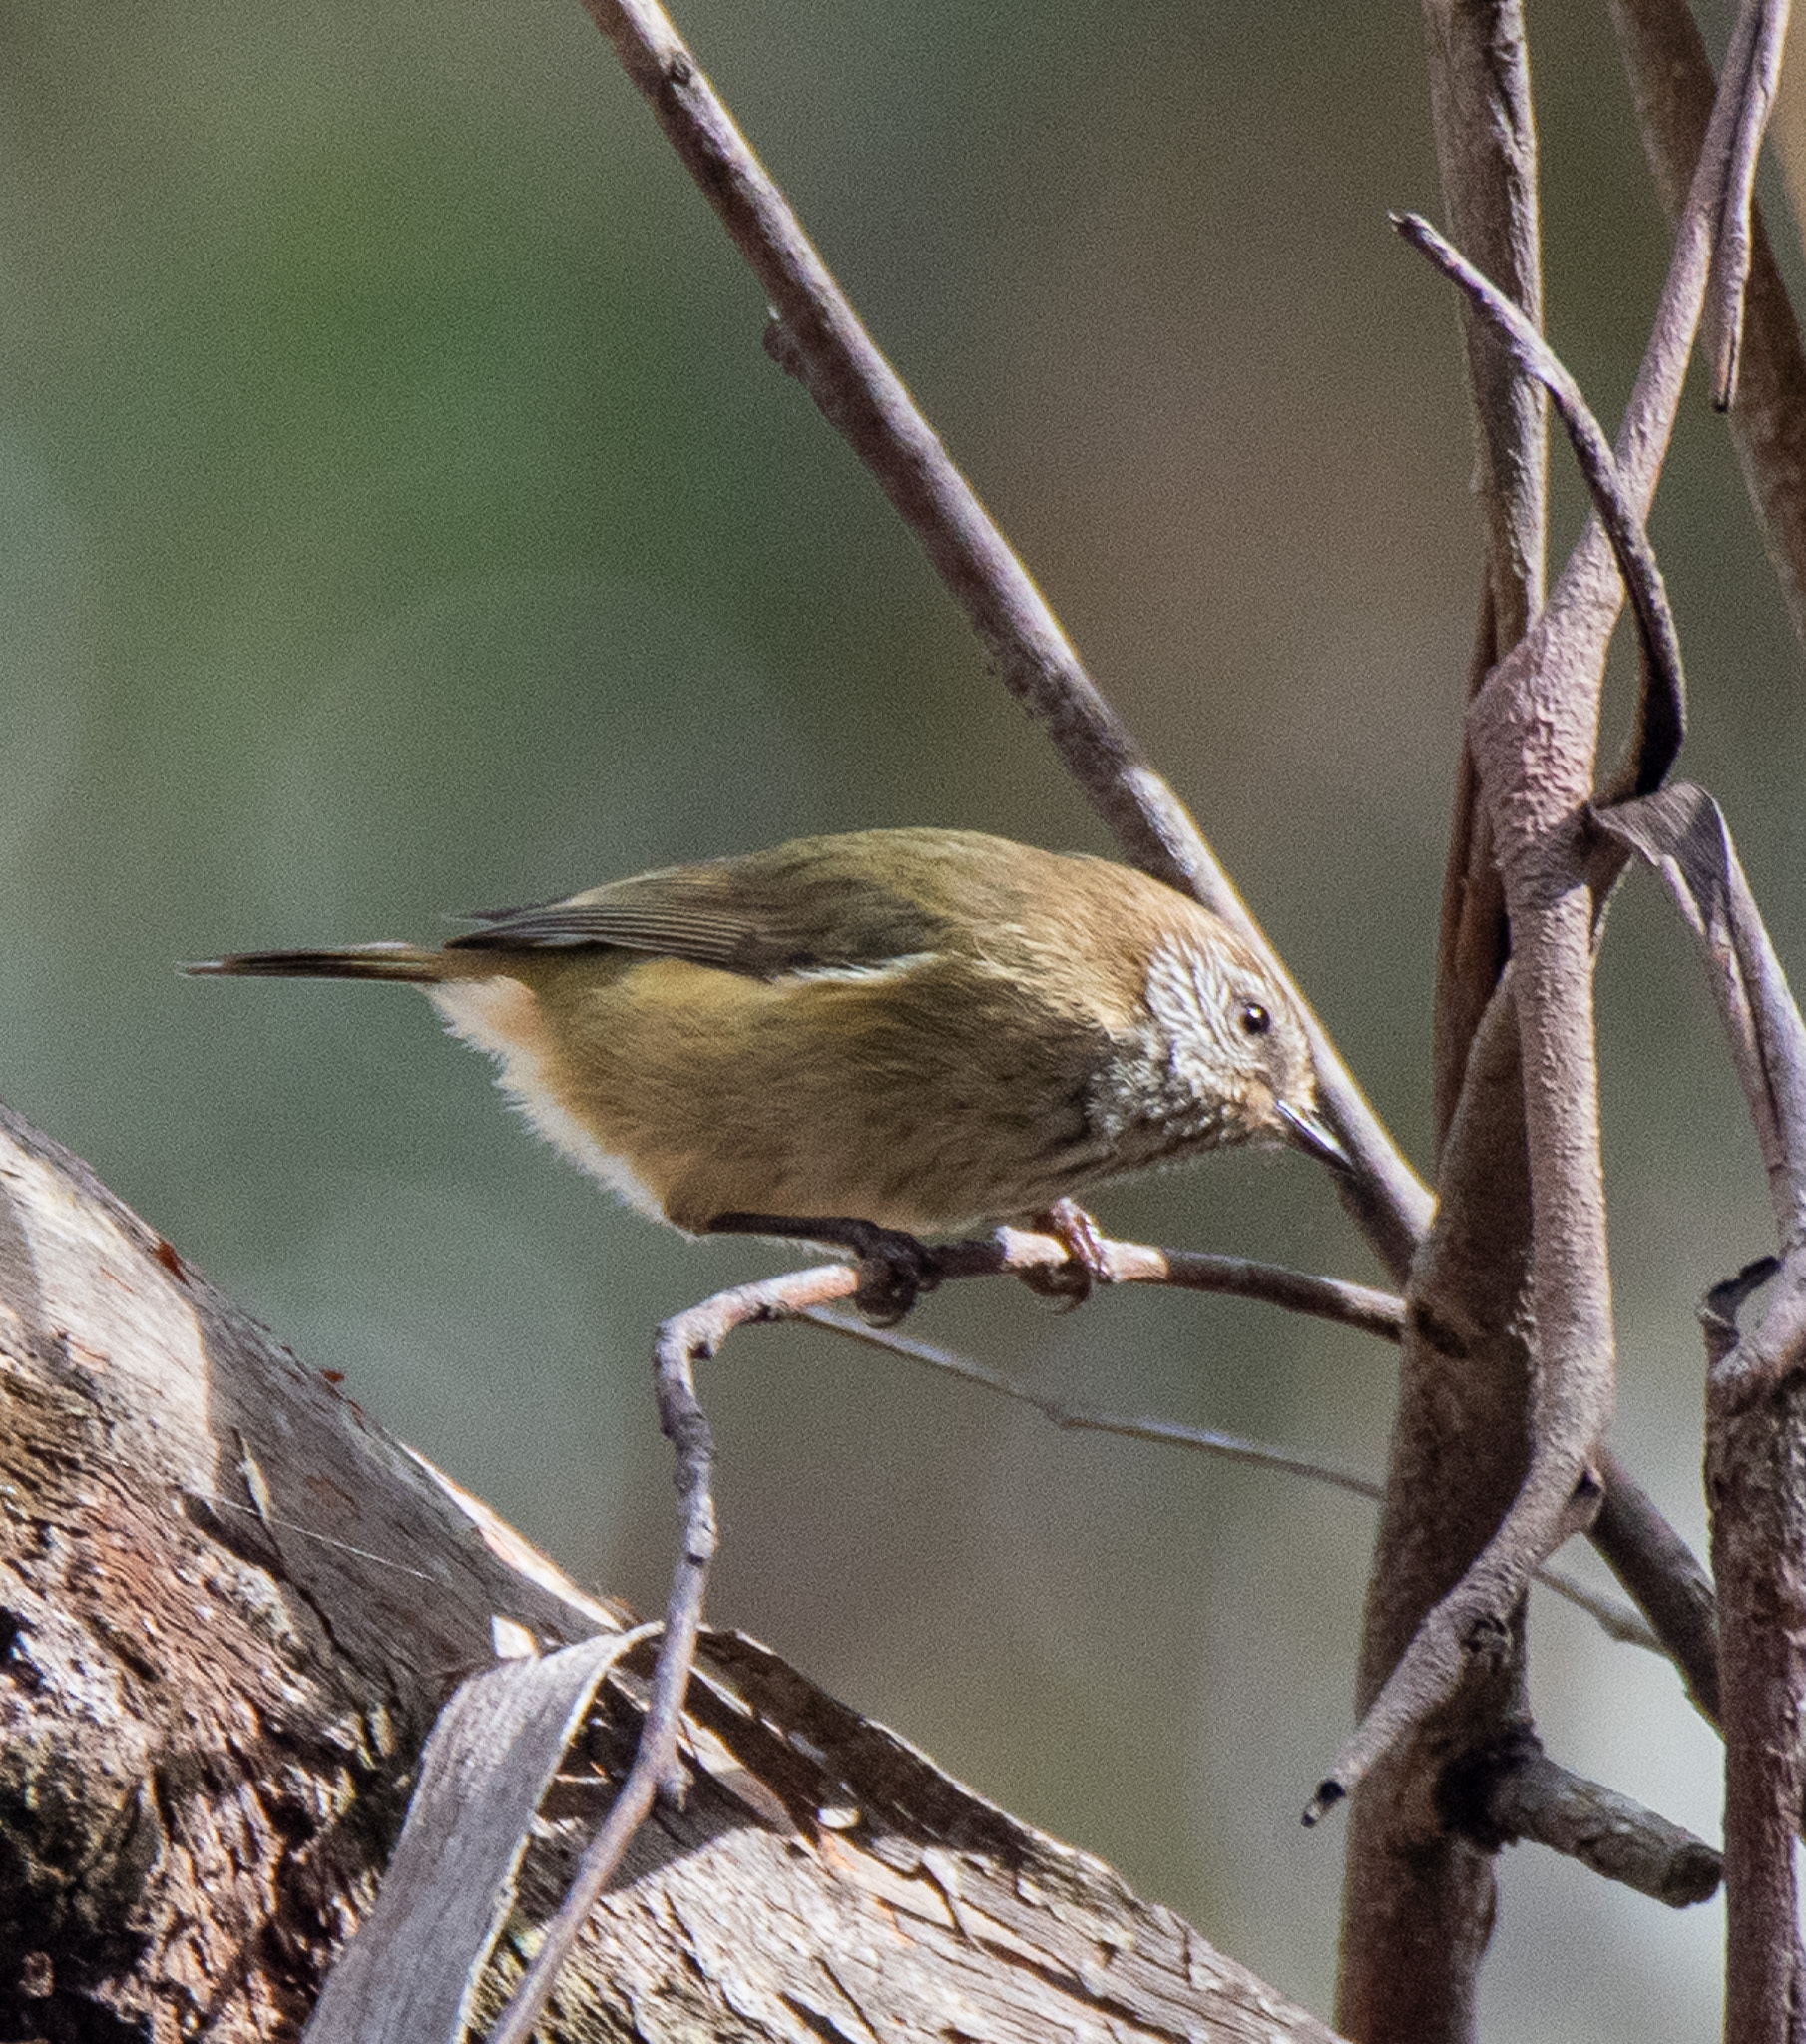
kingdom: Animalia
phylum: Chordata
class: Aves
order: Passeriformes
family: Acanthizidae
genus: Acanthiza
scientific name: Acanthiza lineata
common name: Striated thornbill
